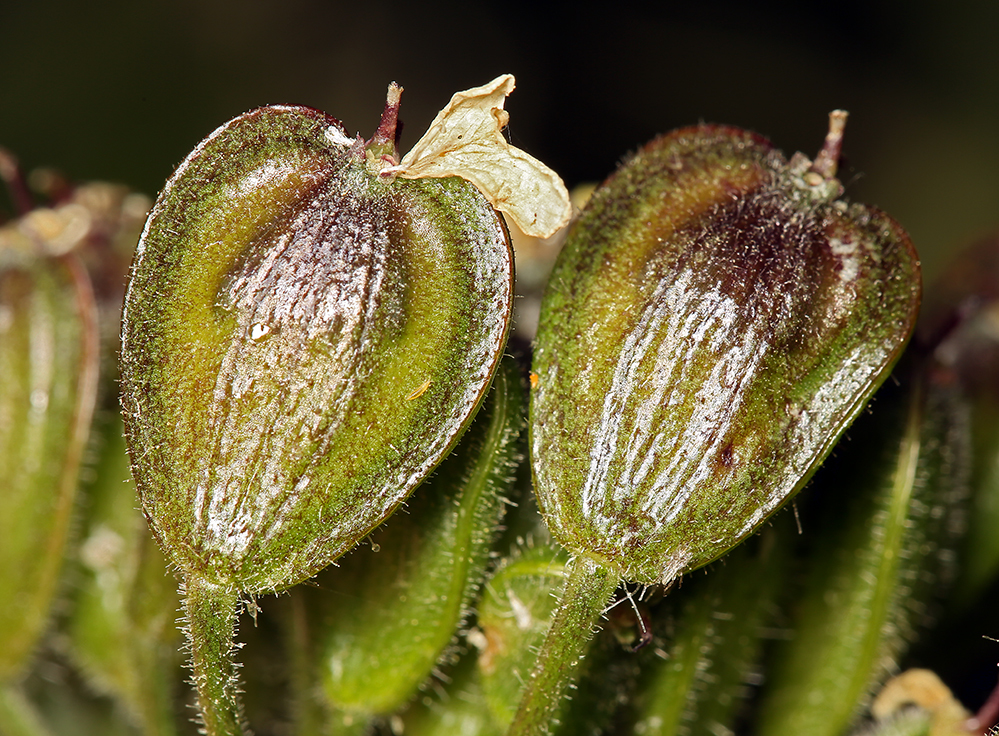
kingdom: Plantae
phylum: Tracheophyta
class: Magnoliopsida
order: Apiales
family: Apiaceae
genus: Heracleum
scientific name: Heracleum maximum
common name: American cow parsnip
